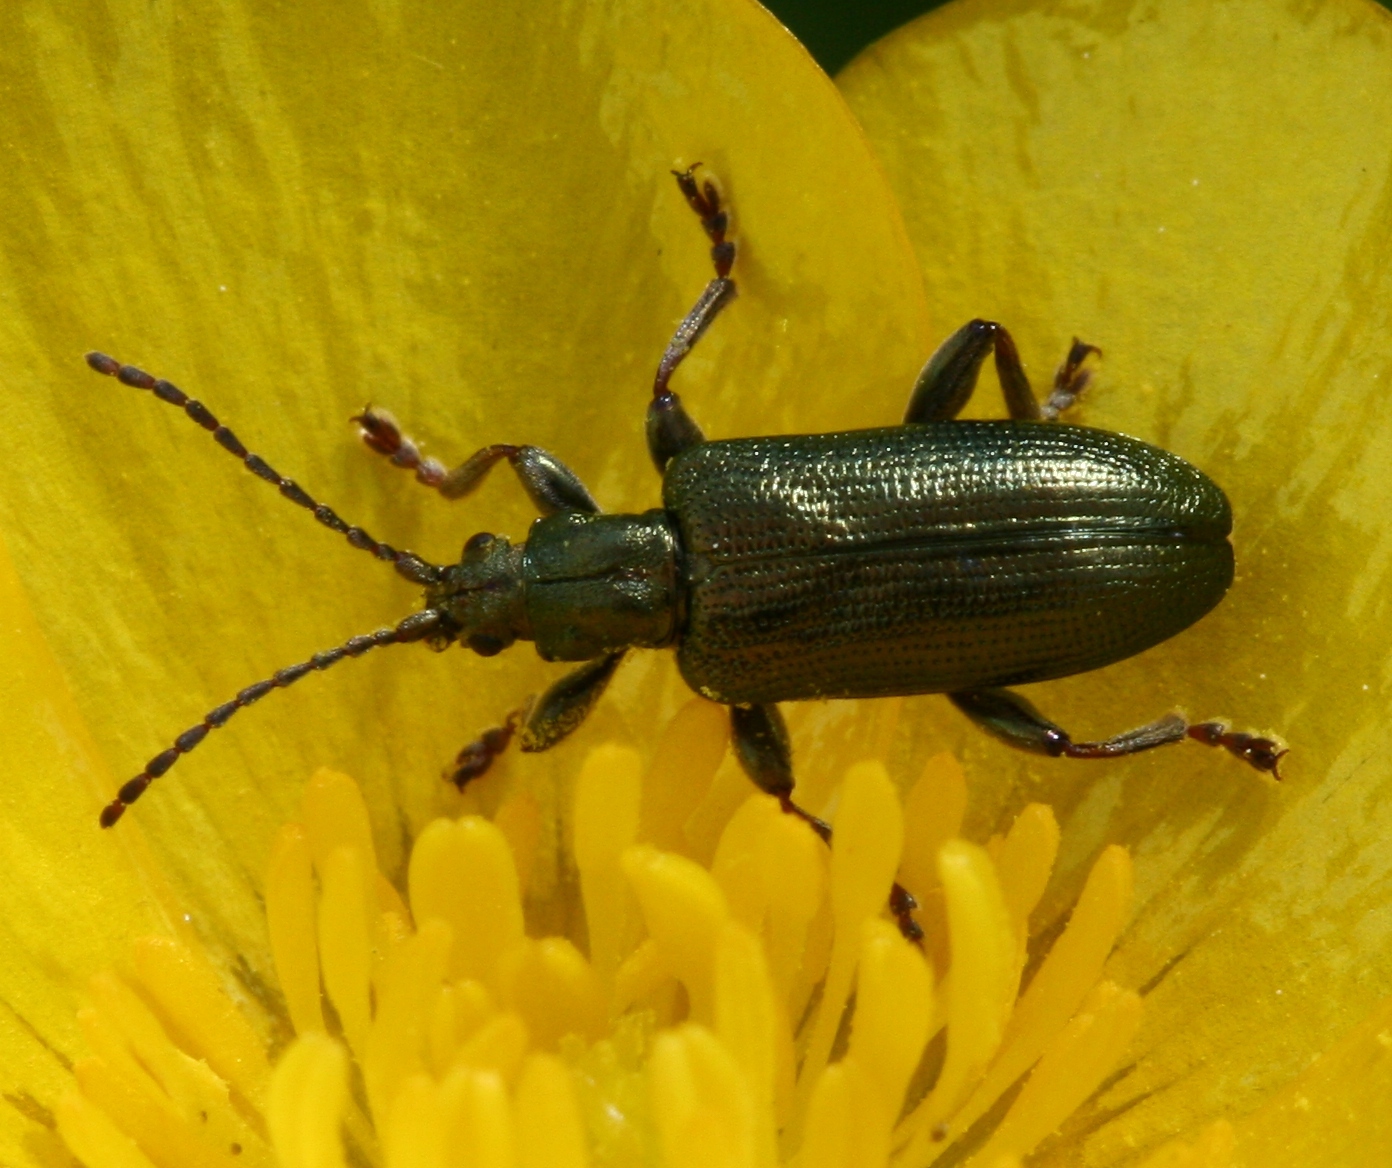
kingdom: Animalia
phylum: Arthropoda
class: Insecta
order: Coleoptera
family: Chrysomelidae
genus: Plateumaris
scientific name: Plateumaris sericea
